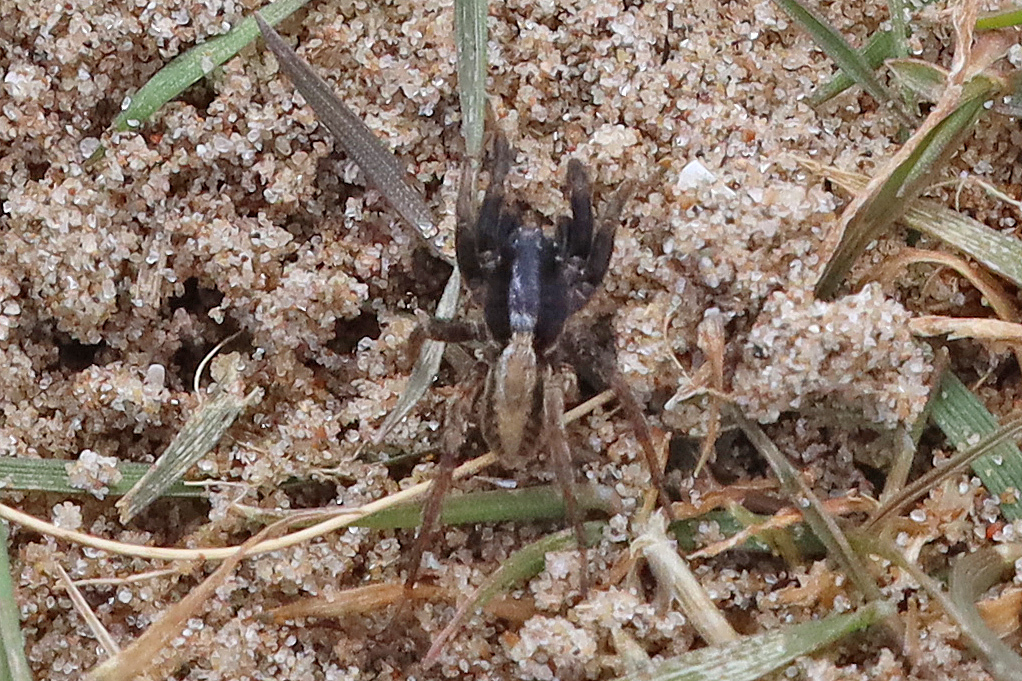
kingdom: Animalia
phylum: Arthropoda
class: Arachnida
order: Araneae
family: Lycosidae
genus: Alopecosa
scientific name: Alopecosa
